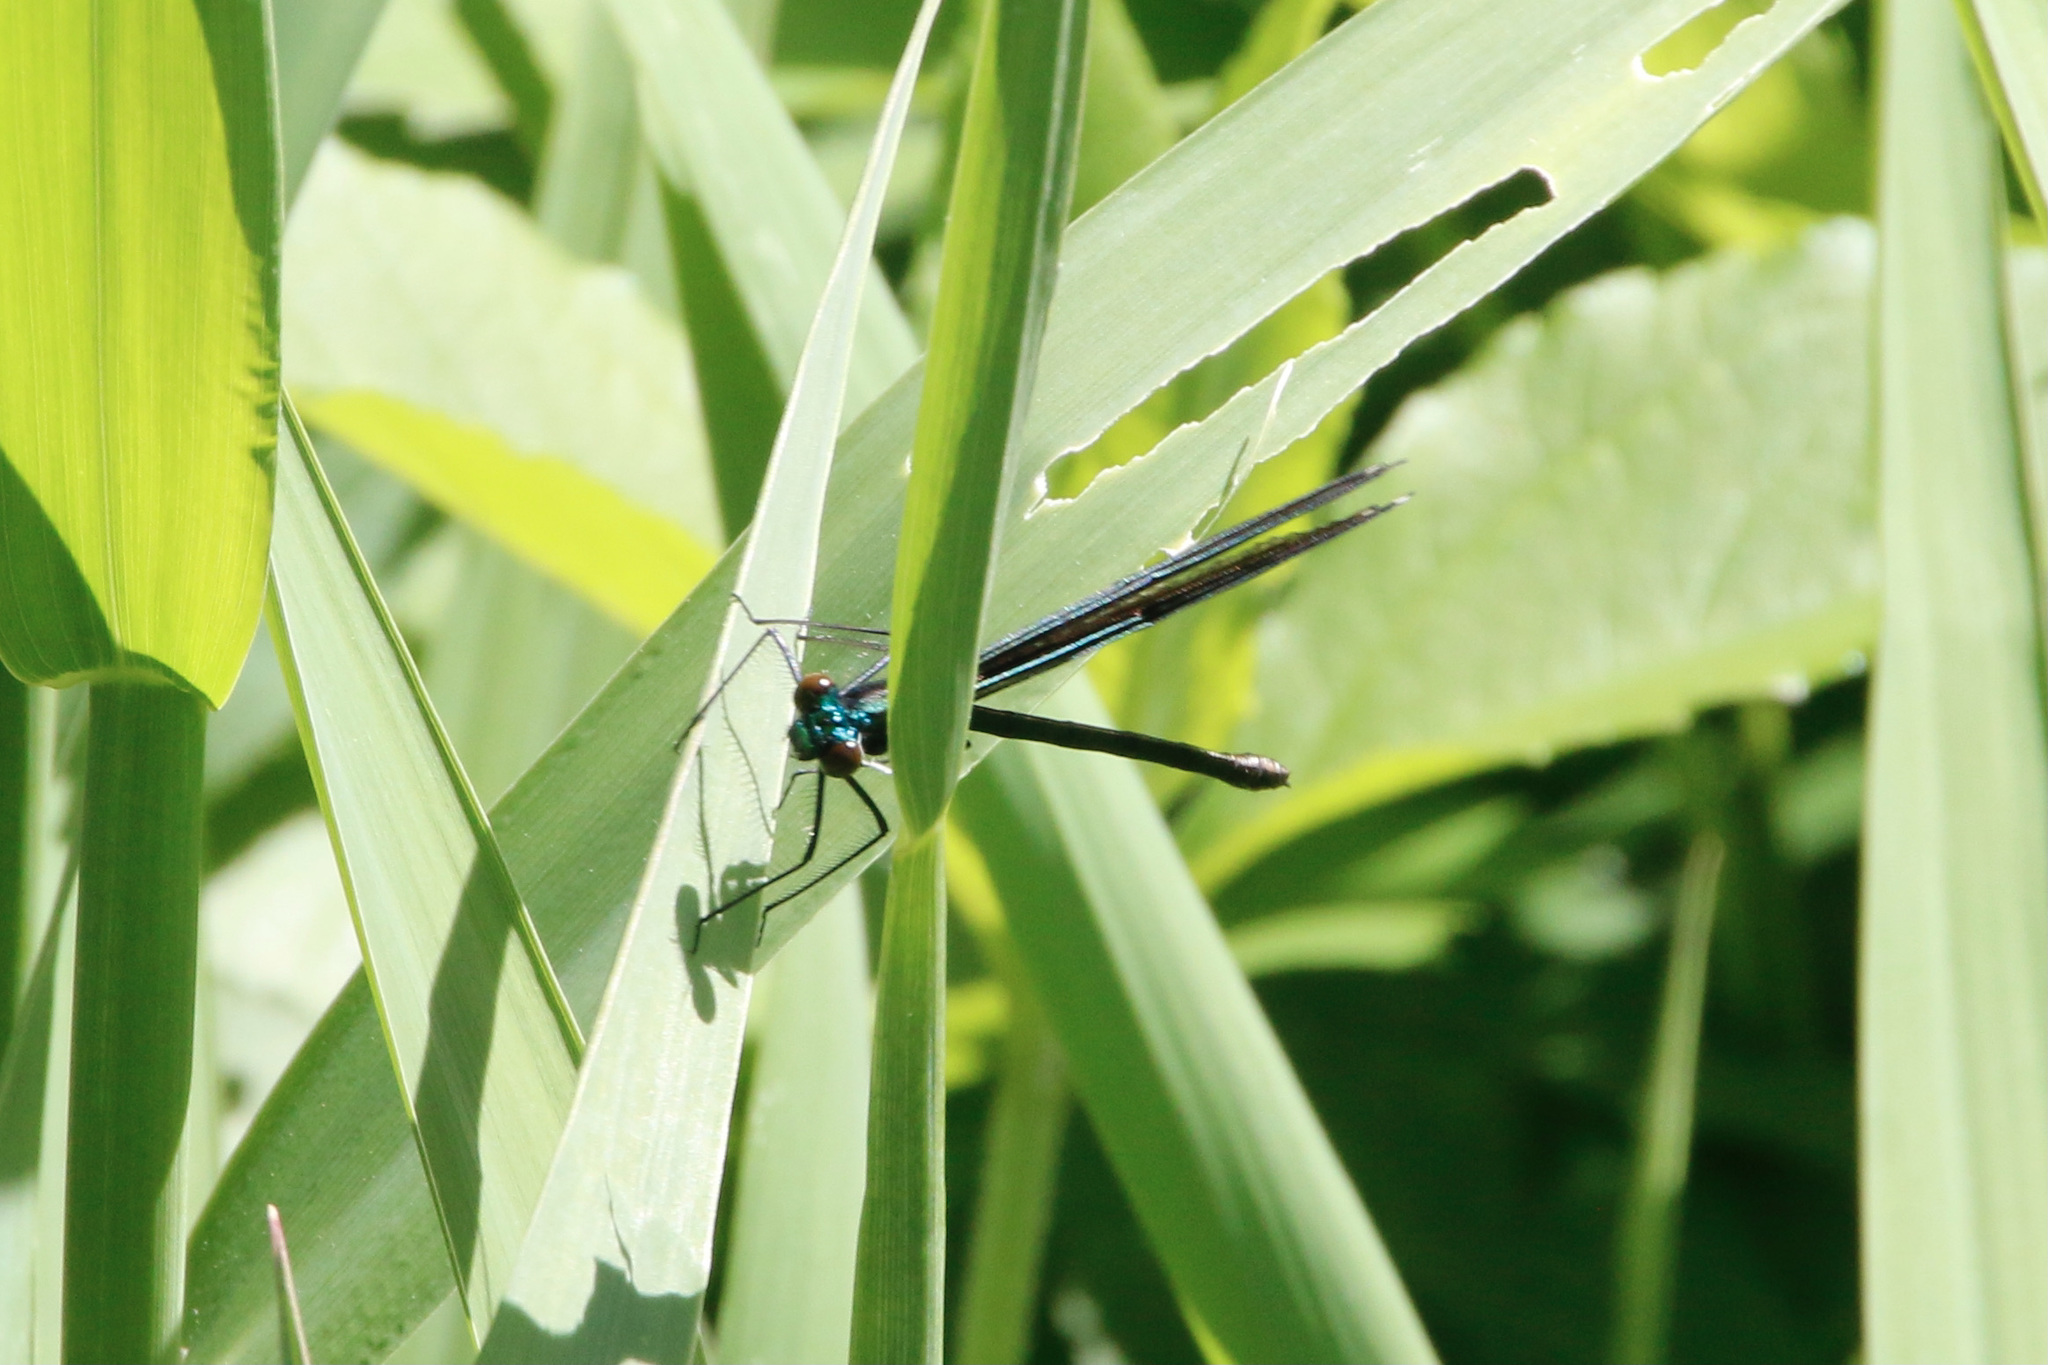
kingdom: Animalia
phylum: Arthropoda
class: Insecta
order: Odonata
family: Calopterygidae
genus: Calopteryx
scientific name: Calopteryx maculata
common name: Ebony jewelwing
